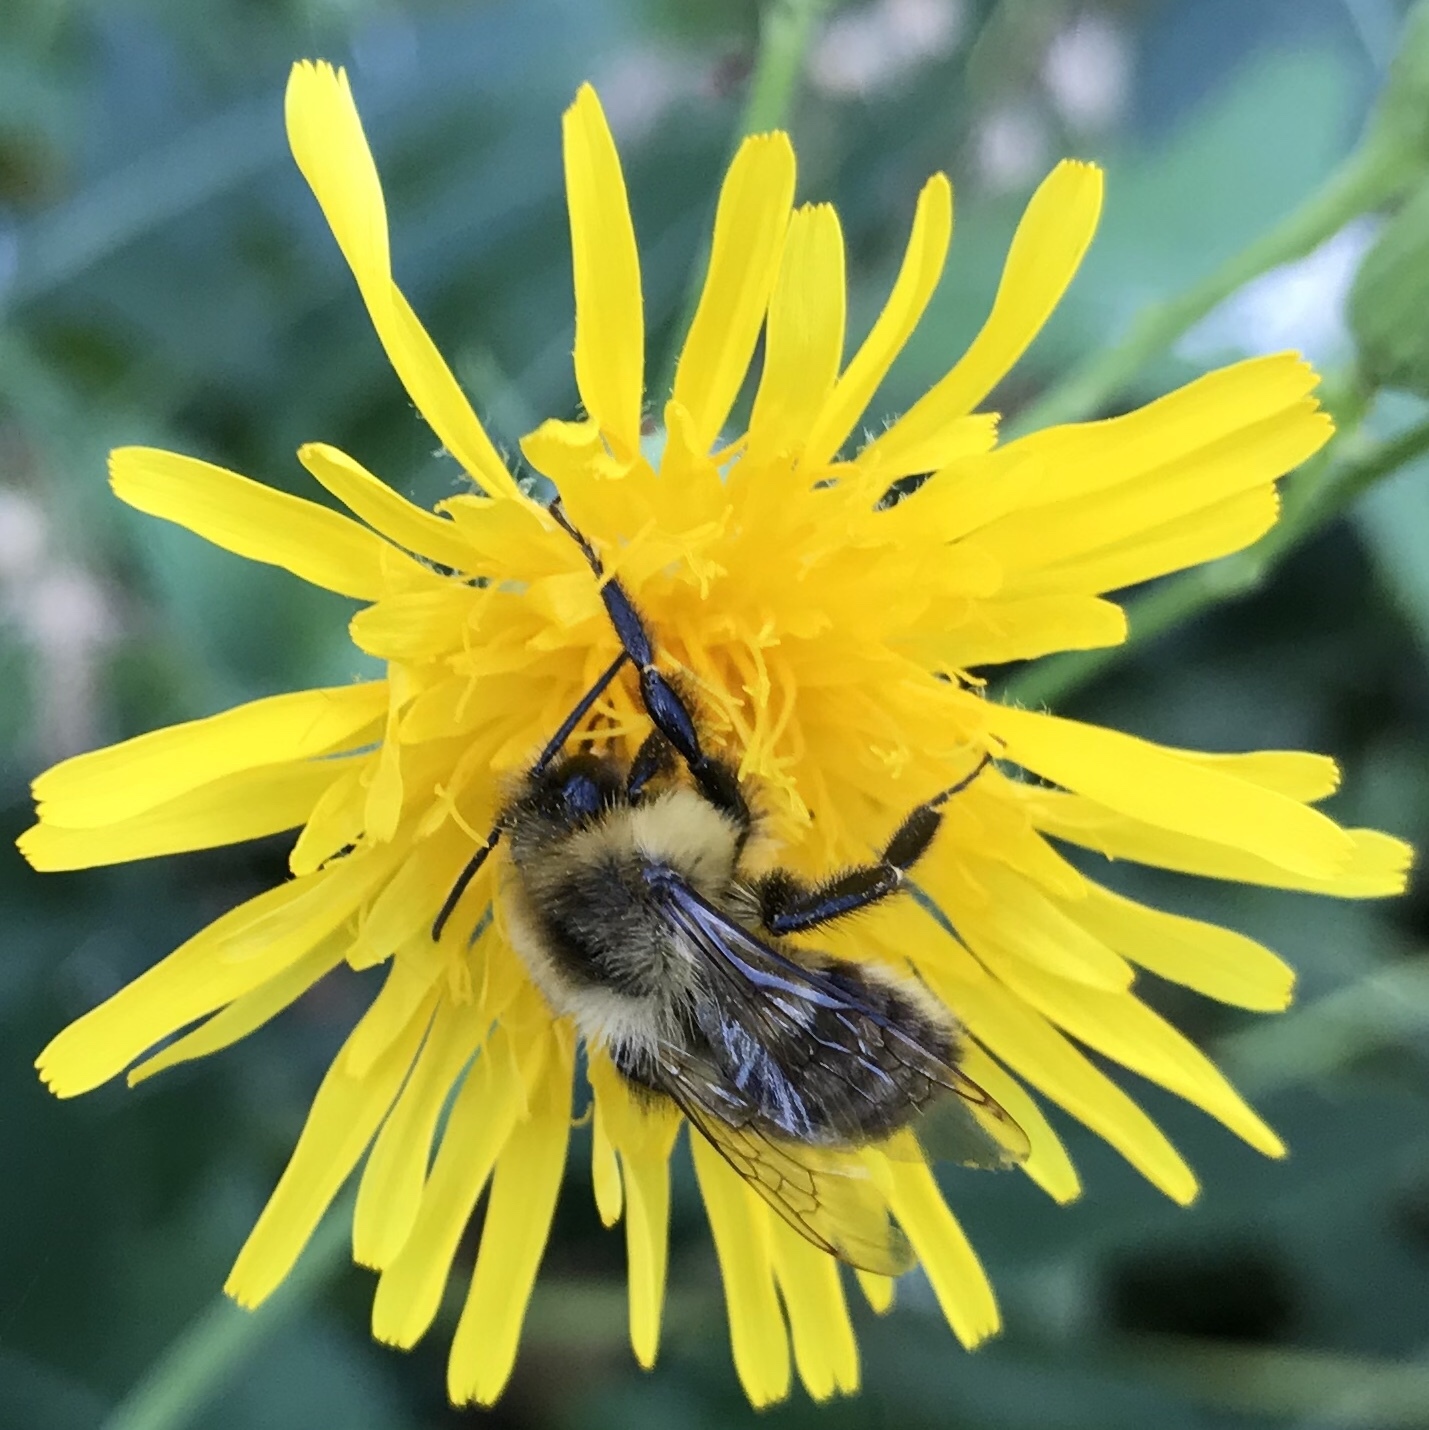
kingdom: Animalia
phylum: Arthropoda
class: Insecta
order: Hymenoptera
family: Apidae
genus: Bombus
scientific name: Bombus impatiens
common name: Common eastern bumble bee
